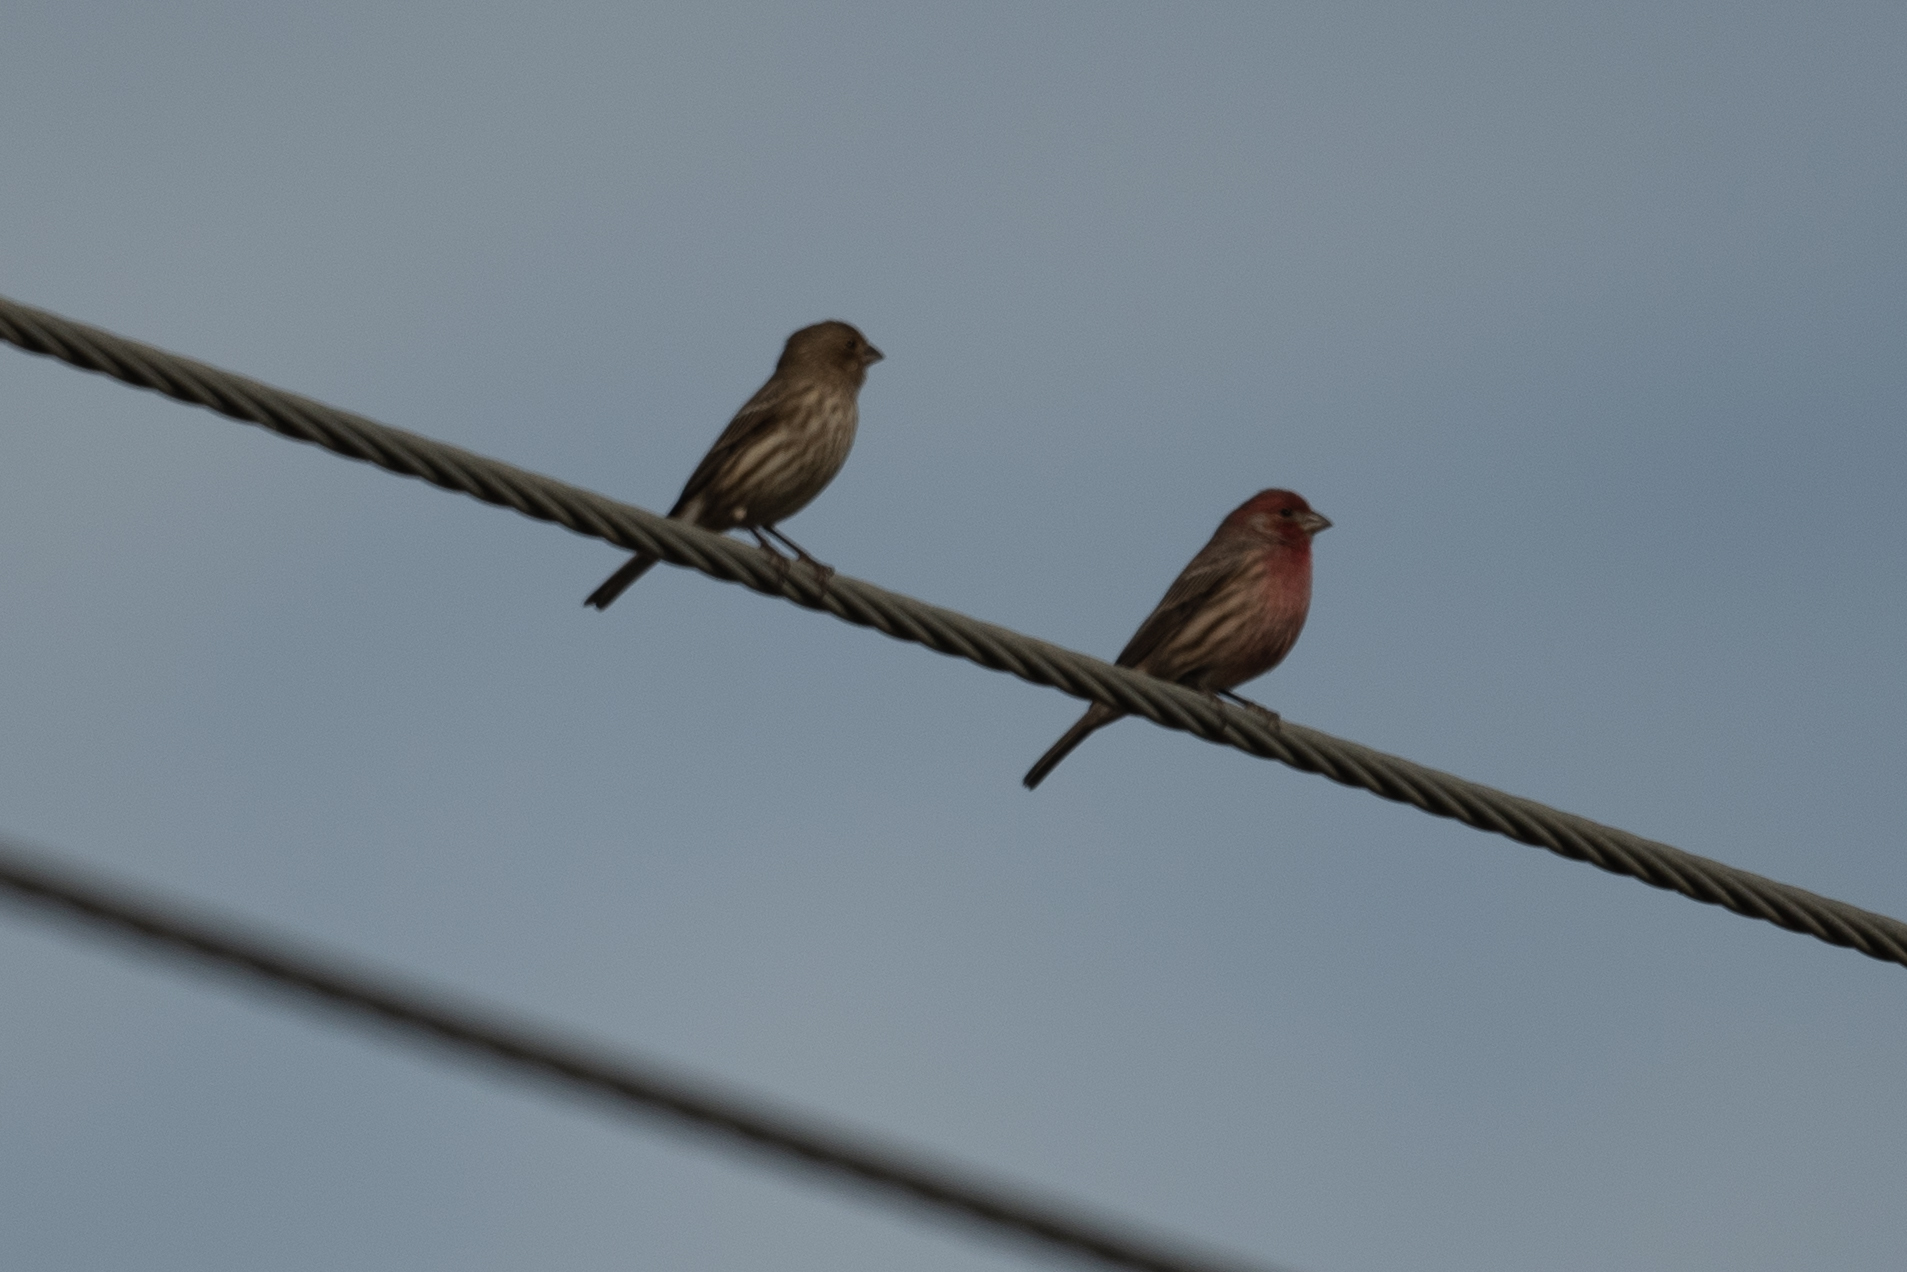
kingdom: Animalia
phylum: Chordata
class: Aves
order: Passeriformes
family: Fringillidae
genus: Haemorhous
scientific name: Haemorhous mexicanus
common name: House finch
